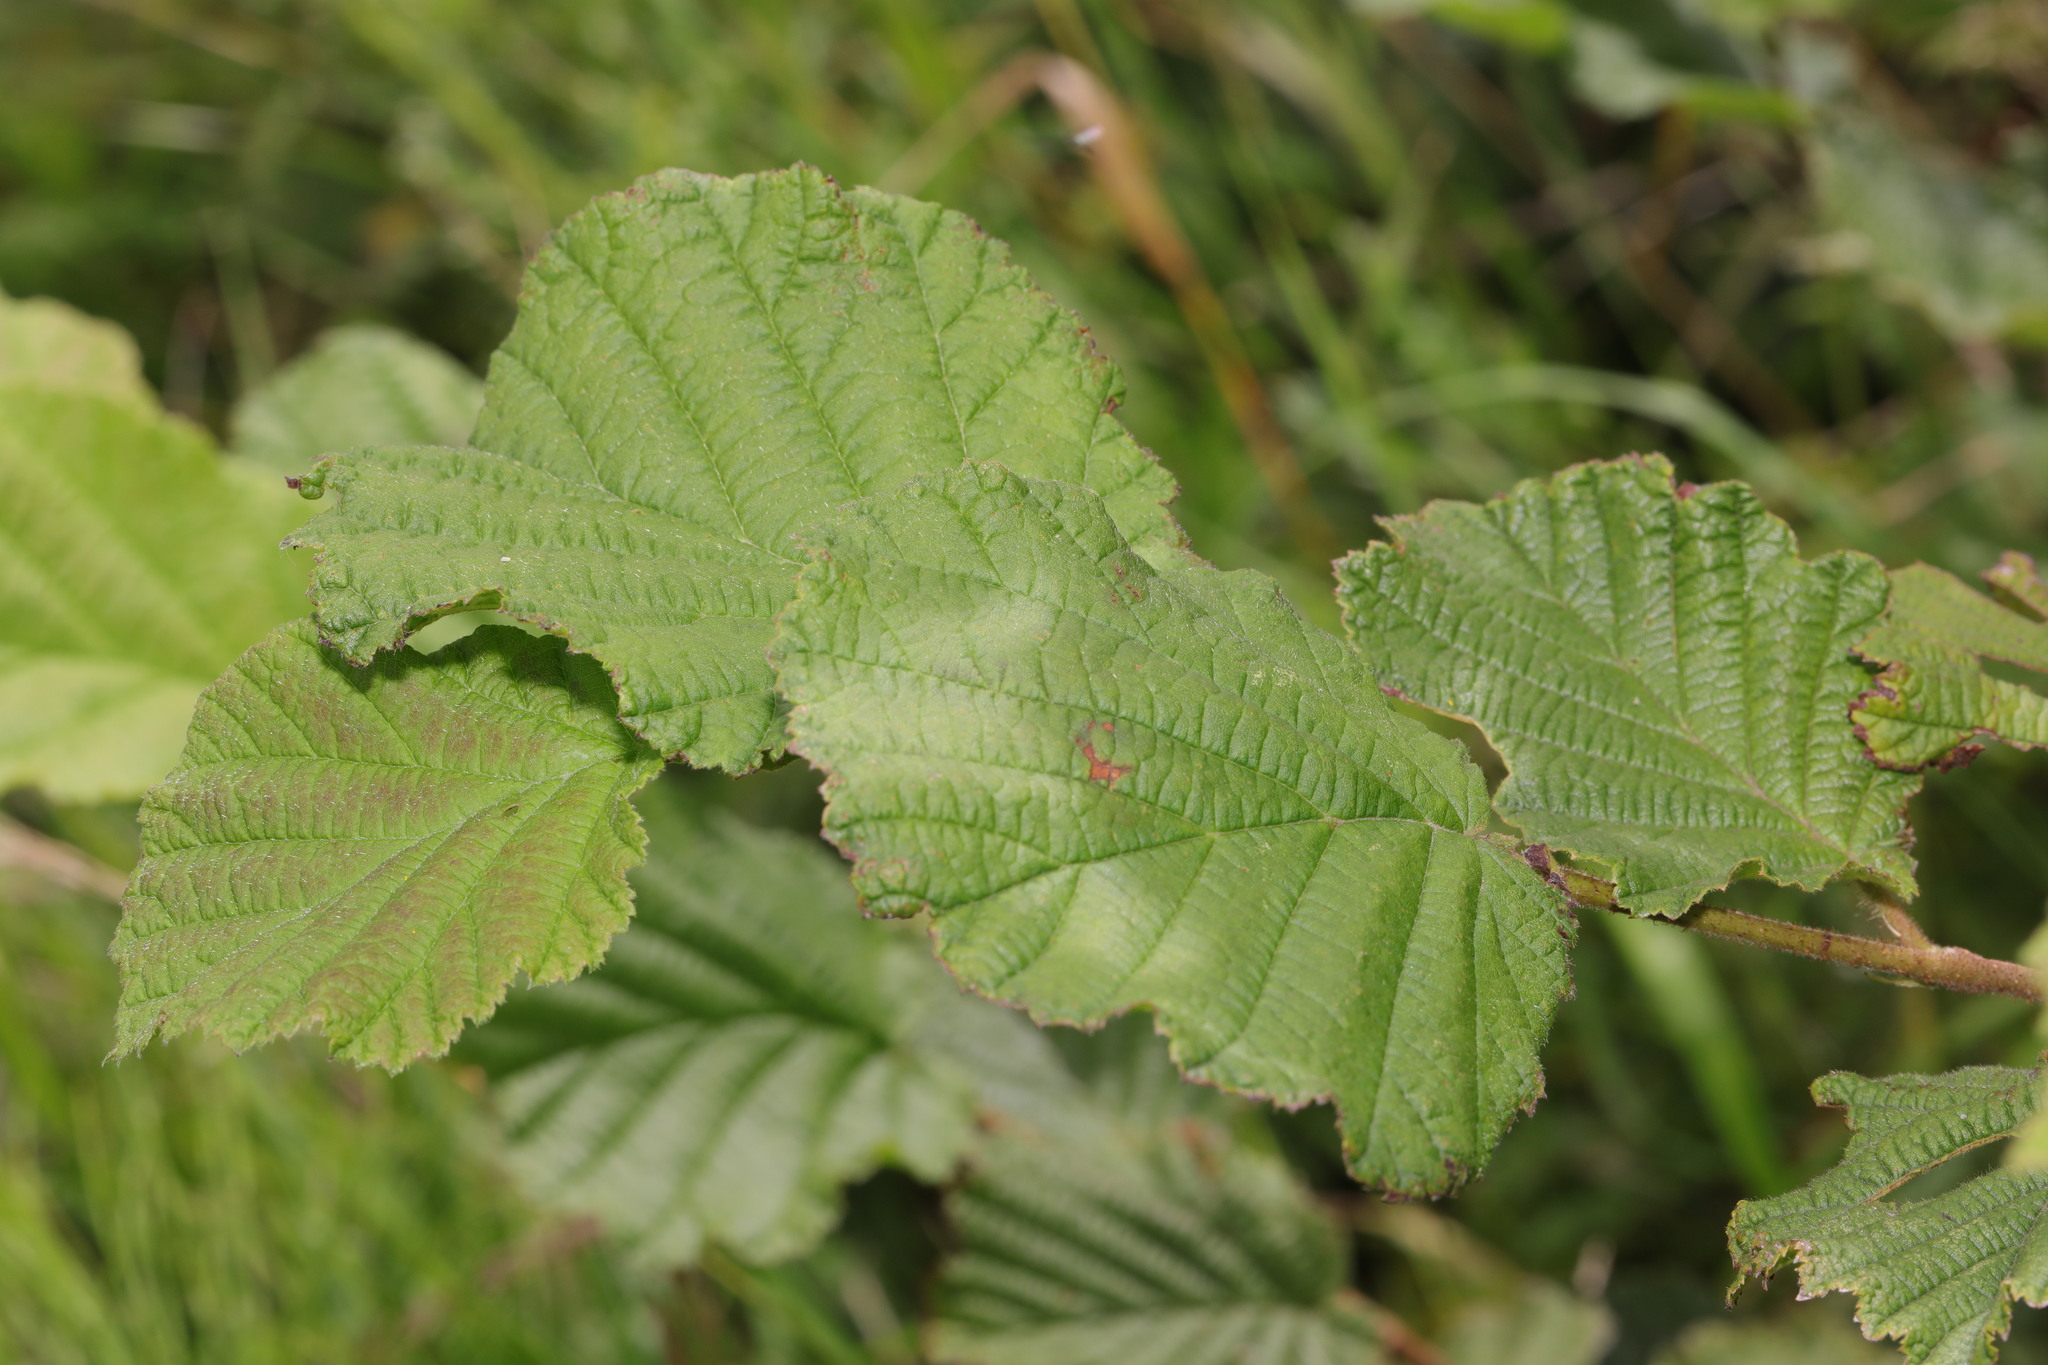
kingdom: Plantae
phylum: Tracheophyta
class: Magnoliopsida
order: Fagales
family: Betulaceae
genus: Corylus
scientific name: Corylus avellana
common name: European hazel
